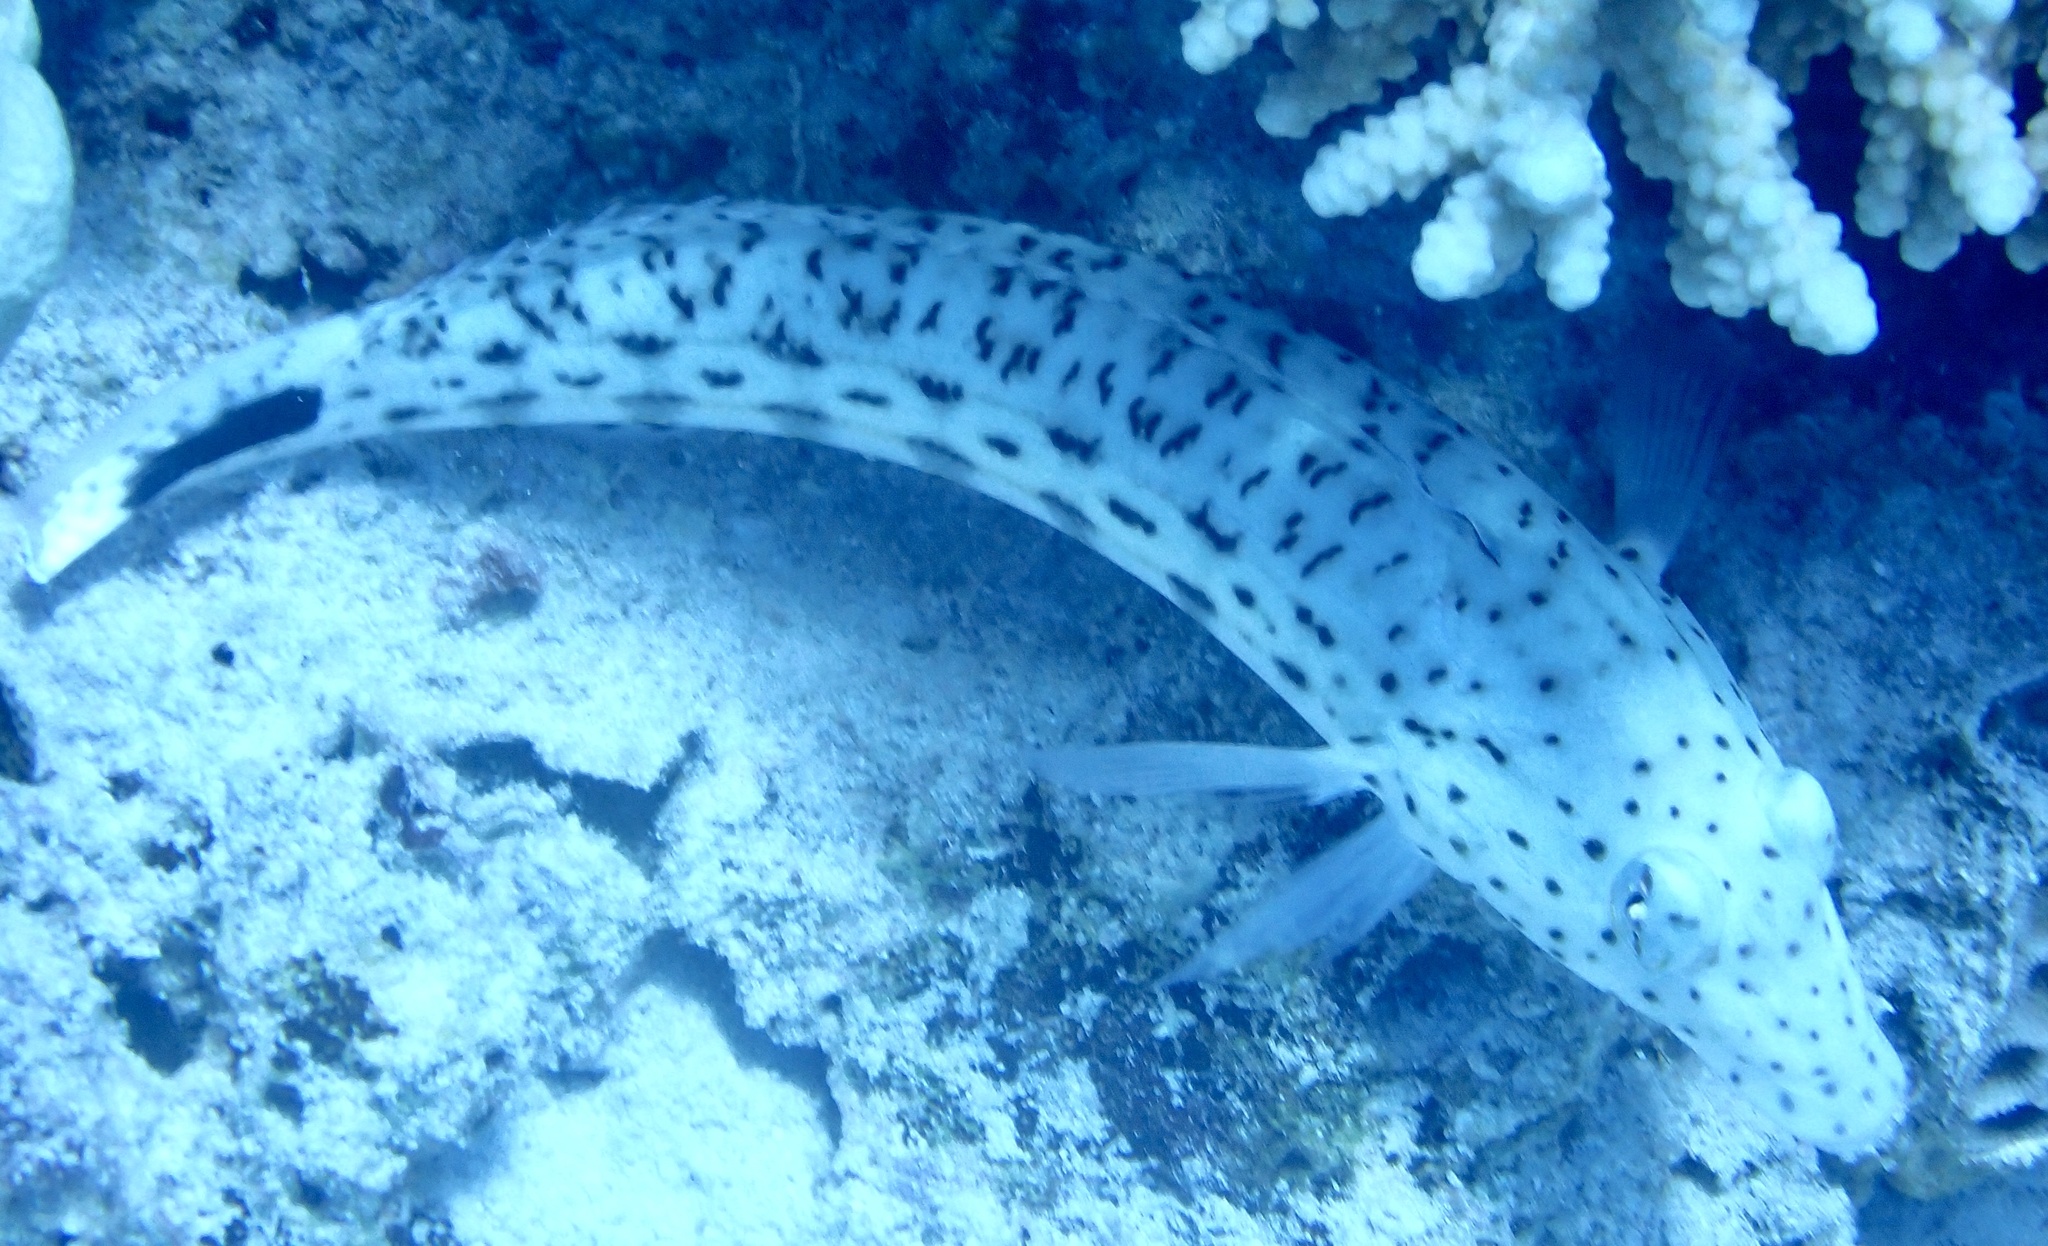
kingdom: Animalia
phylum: Chordata
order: Perciformes
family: Pinguipedidae
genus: Parapercis
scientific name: Parapercis hexophtalma
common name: Speckled sandperch
